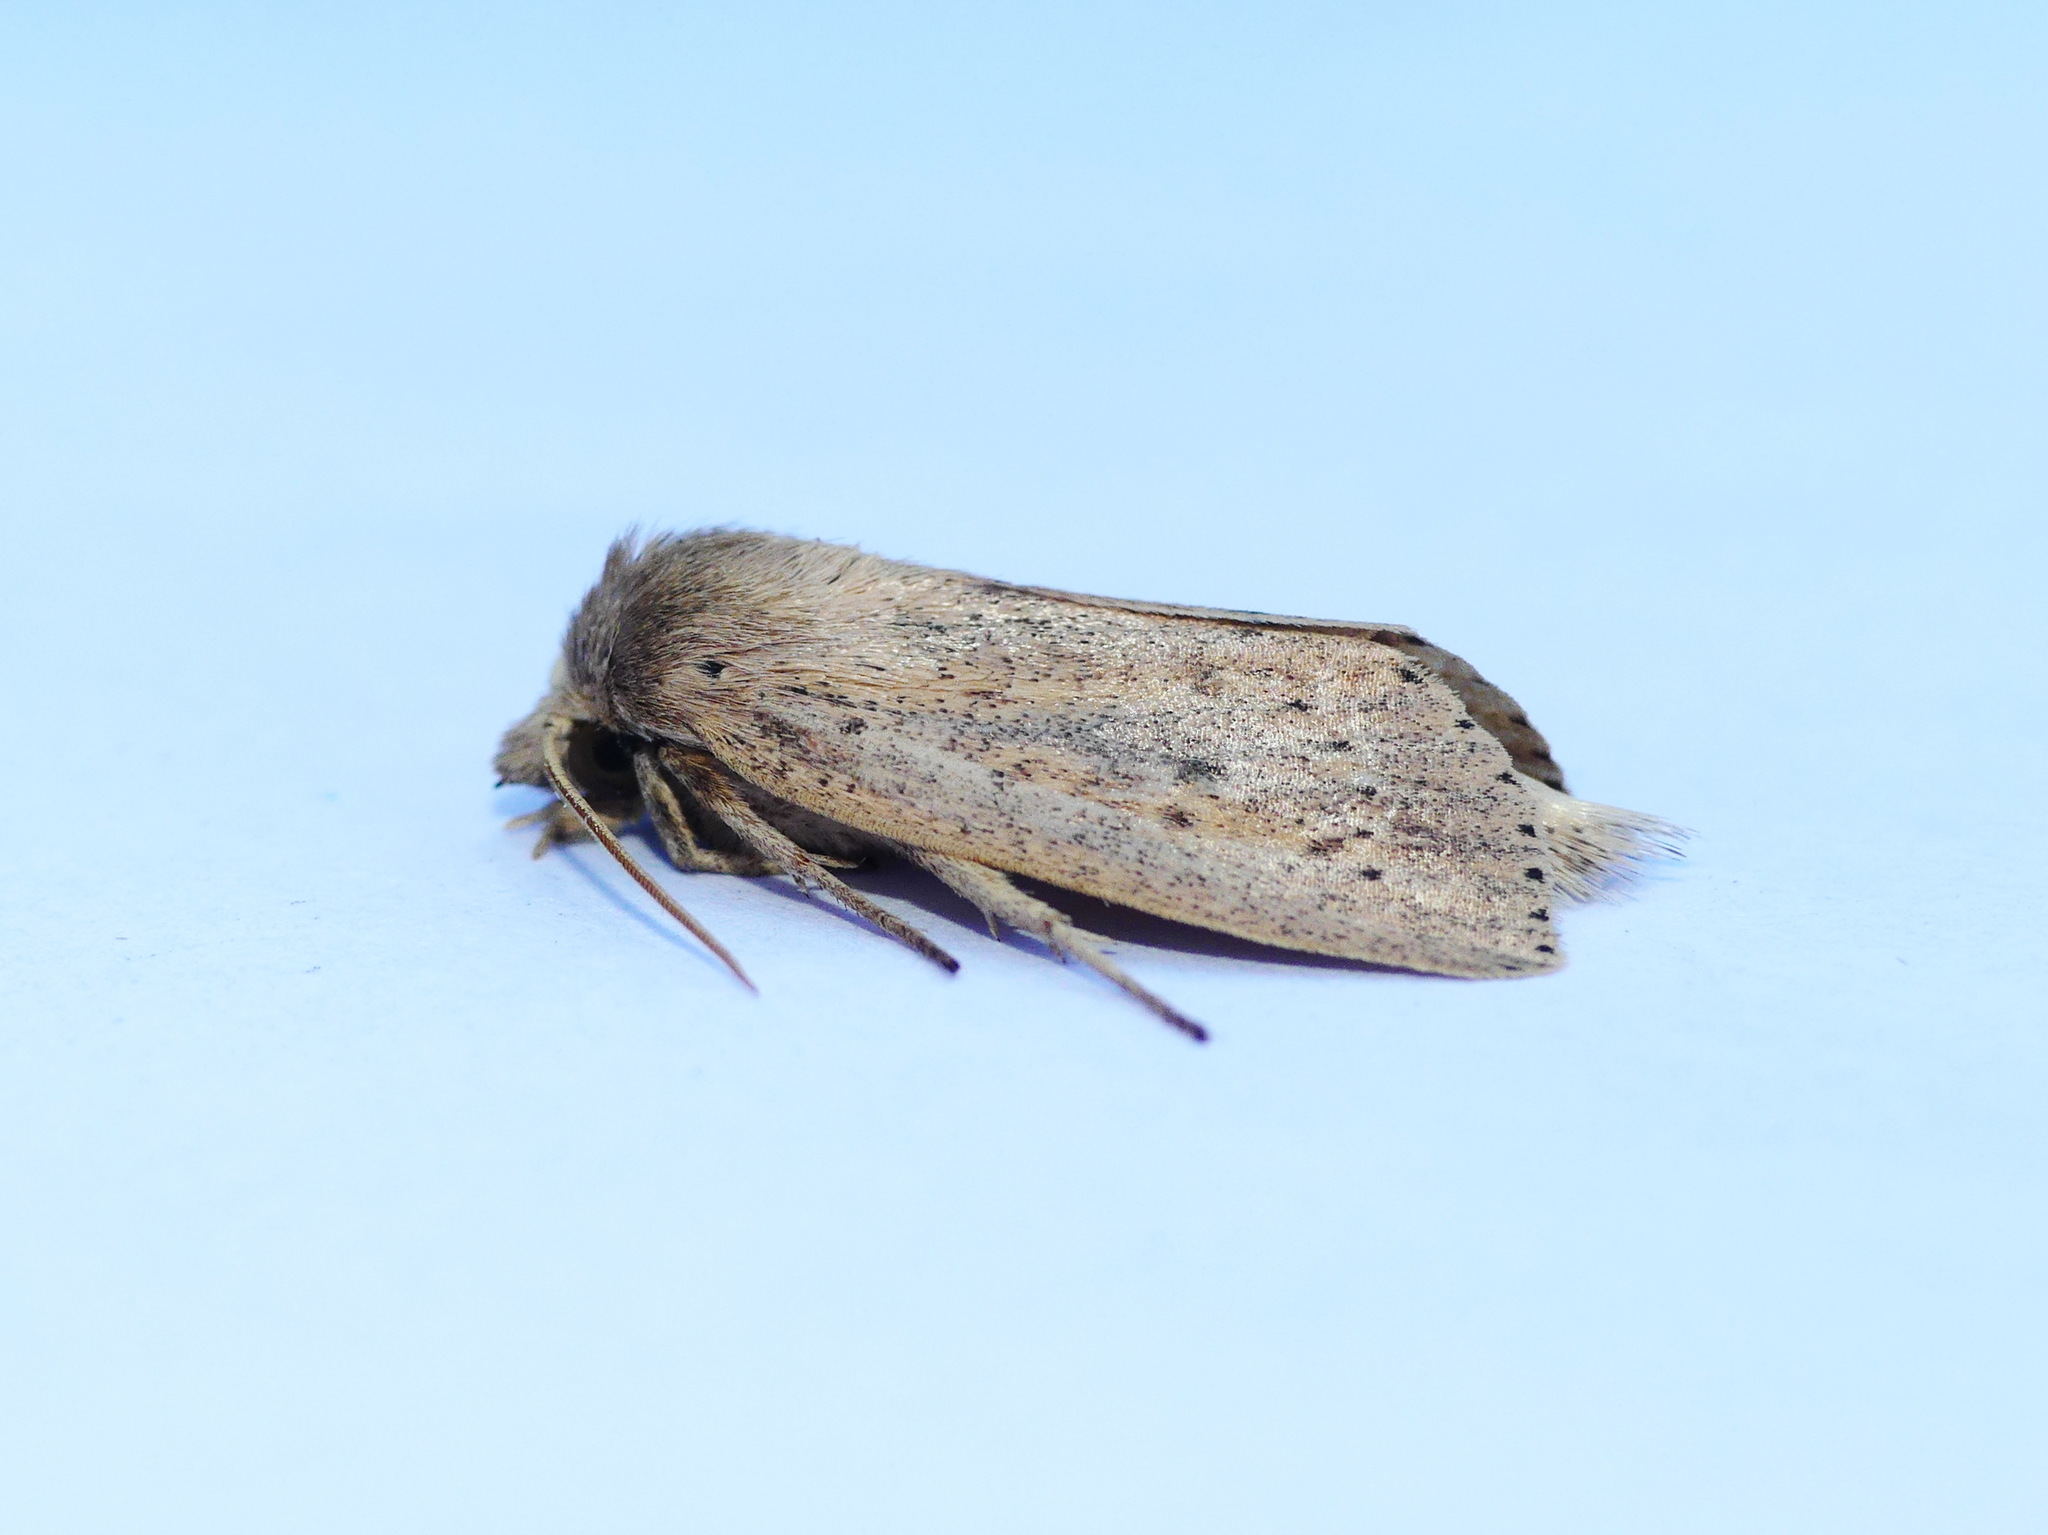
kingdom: Animalia
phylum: Arthropoda
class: Insecta
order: Lepidoptera
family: Noctuidae
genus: Globia
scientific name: Globia oblonga
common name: Oblong sedge borer moth
